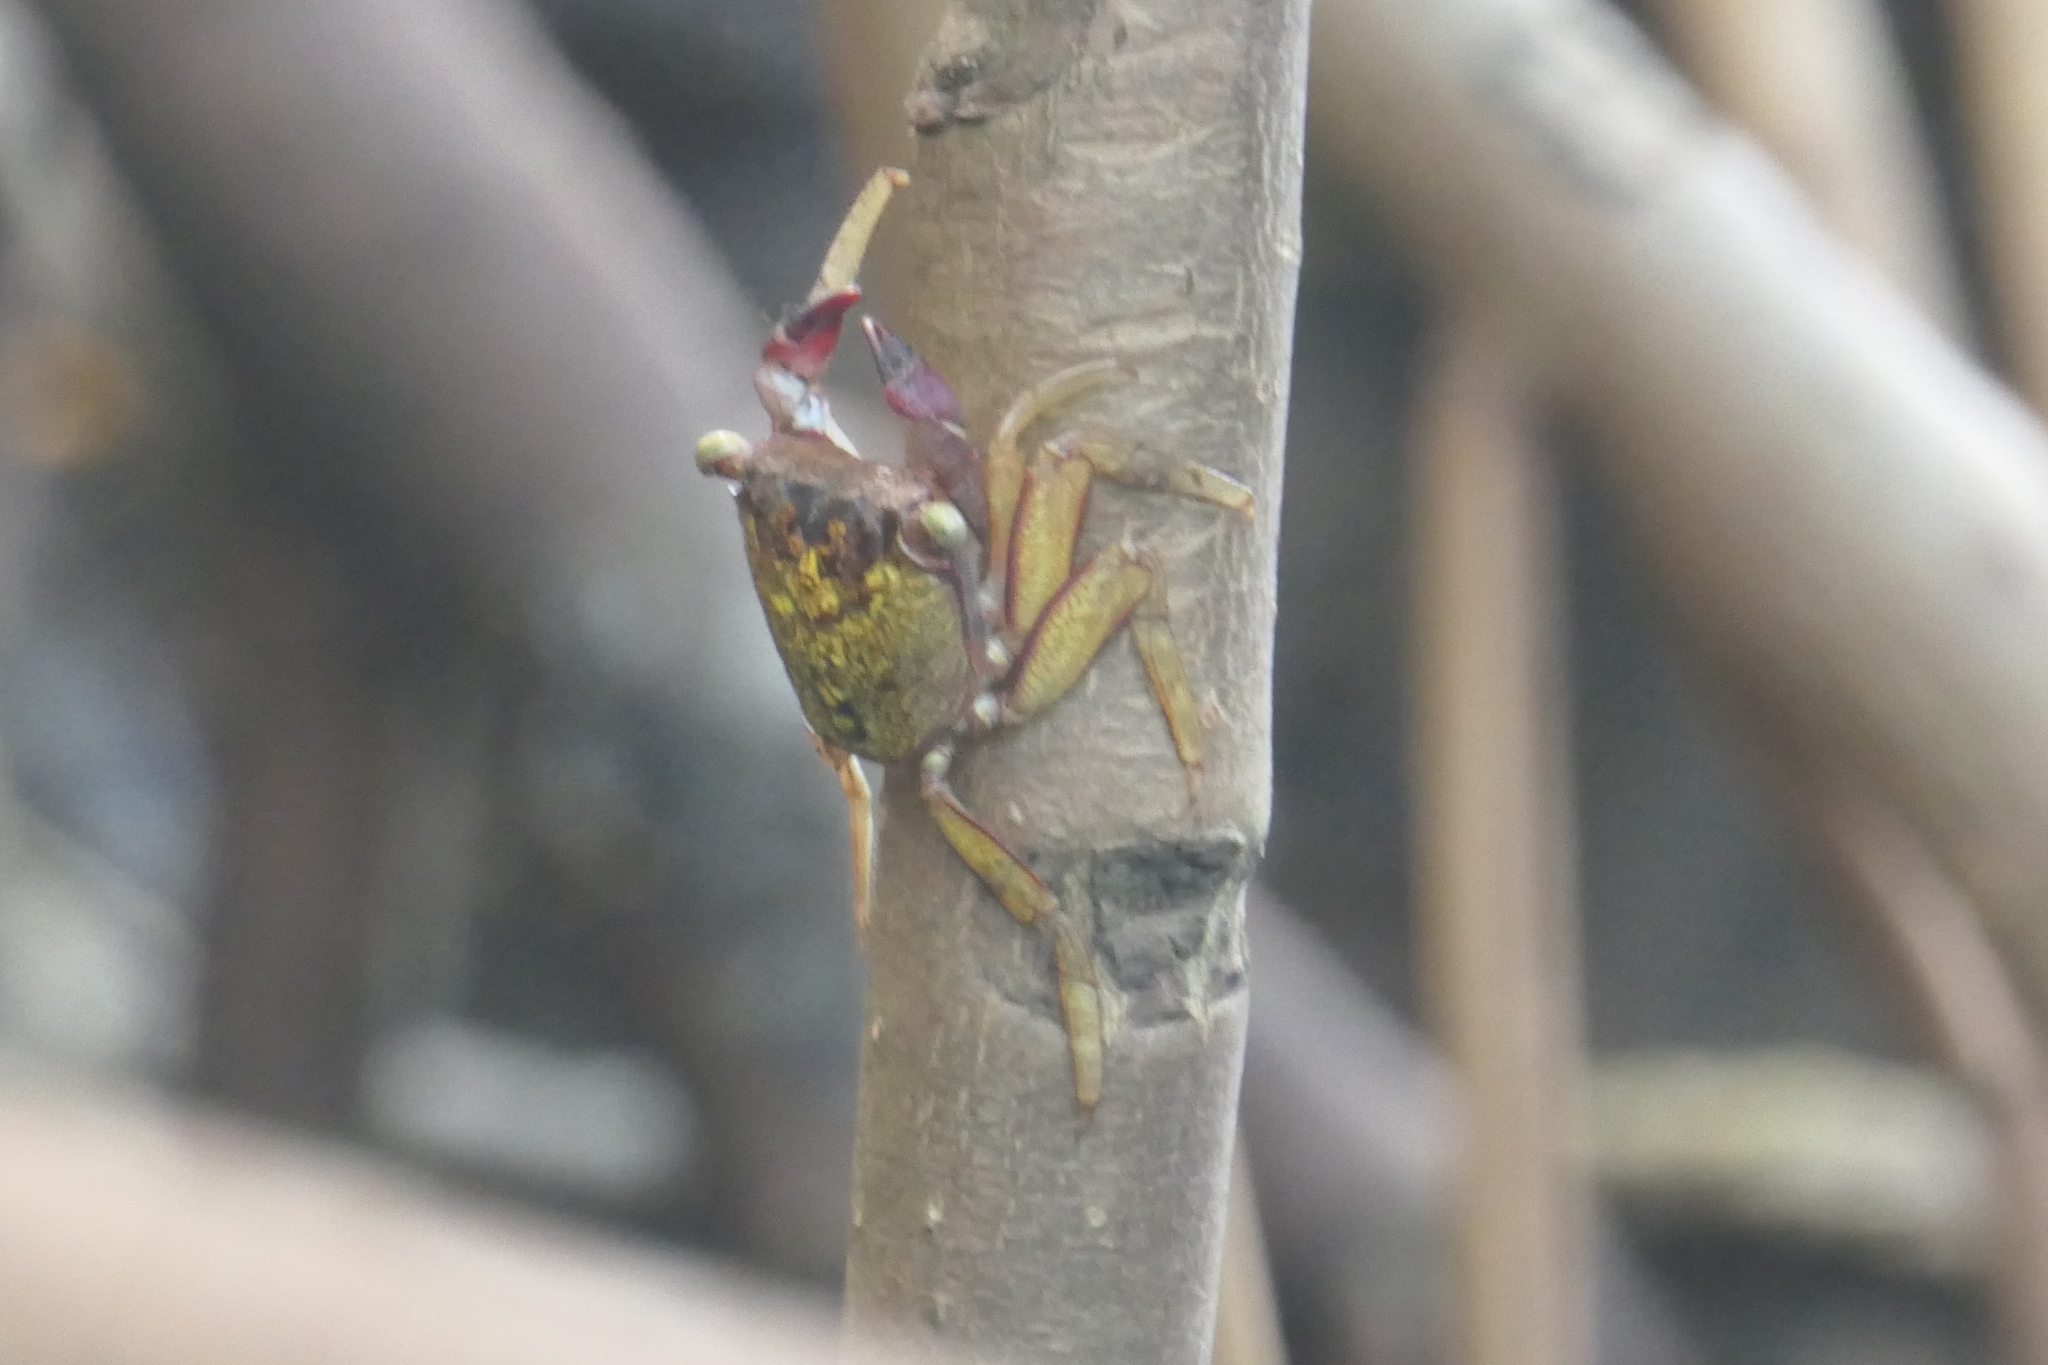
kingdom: Animalia
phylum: Arthropoda
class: Malacostraca
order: Decapoda
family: Sesarmidae
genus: Aratus
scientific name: Aratus pisonii
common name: Mangrove crab
